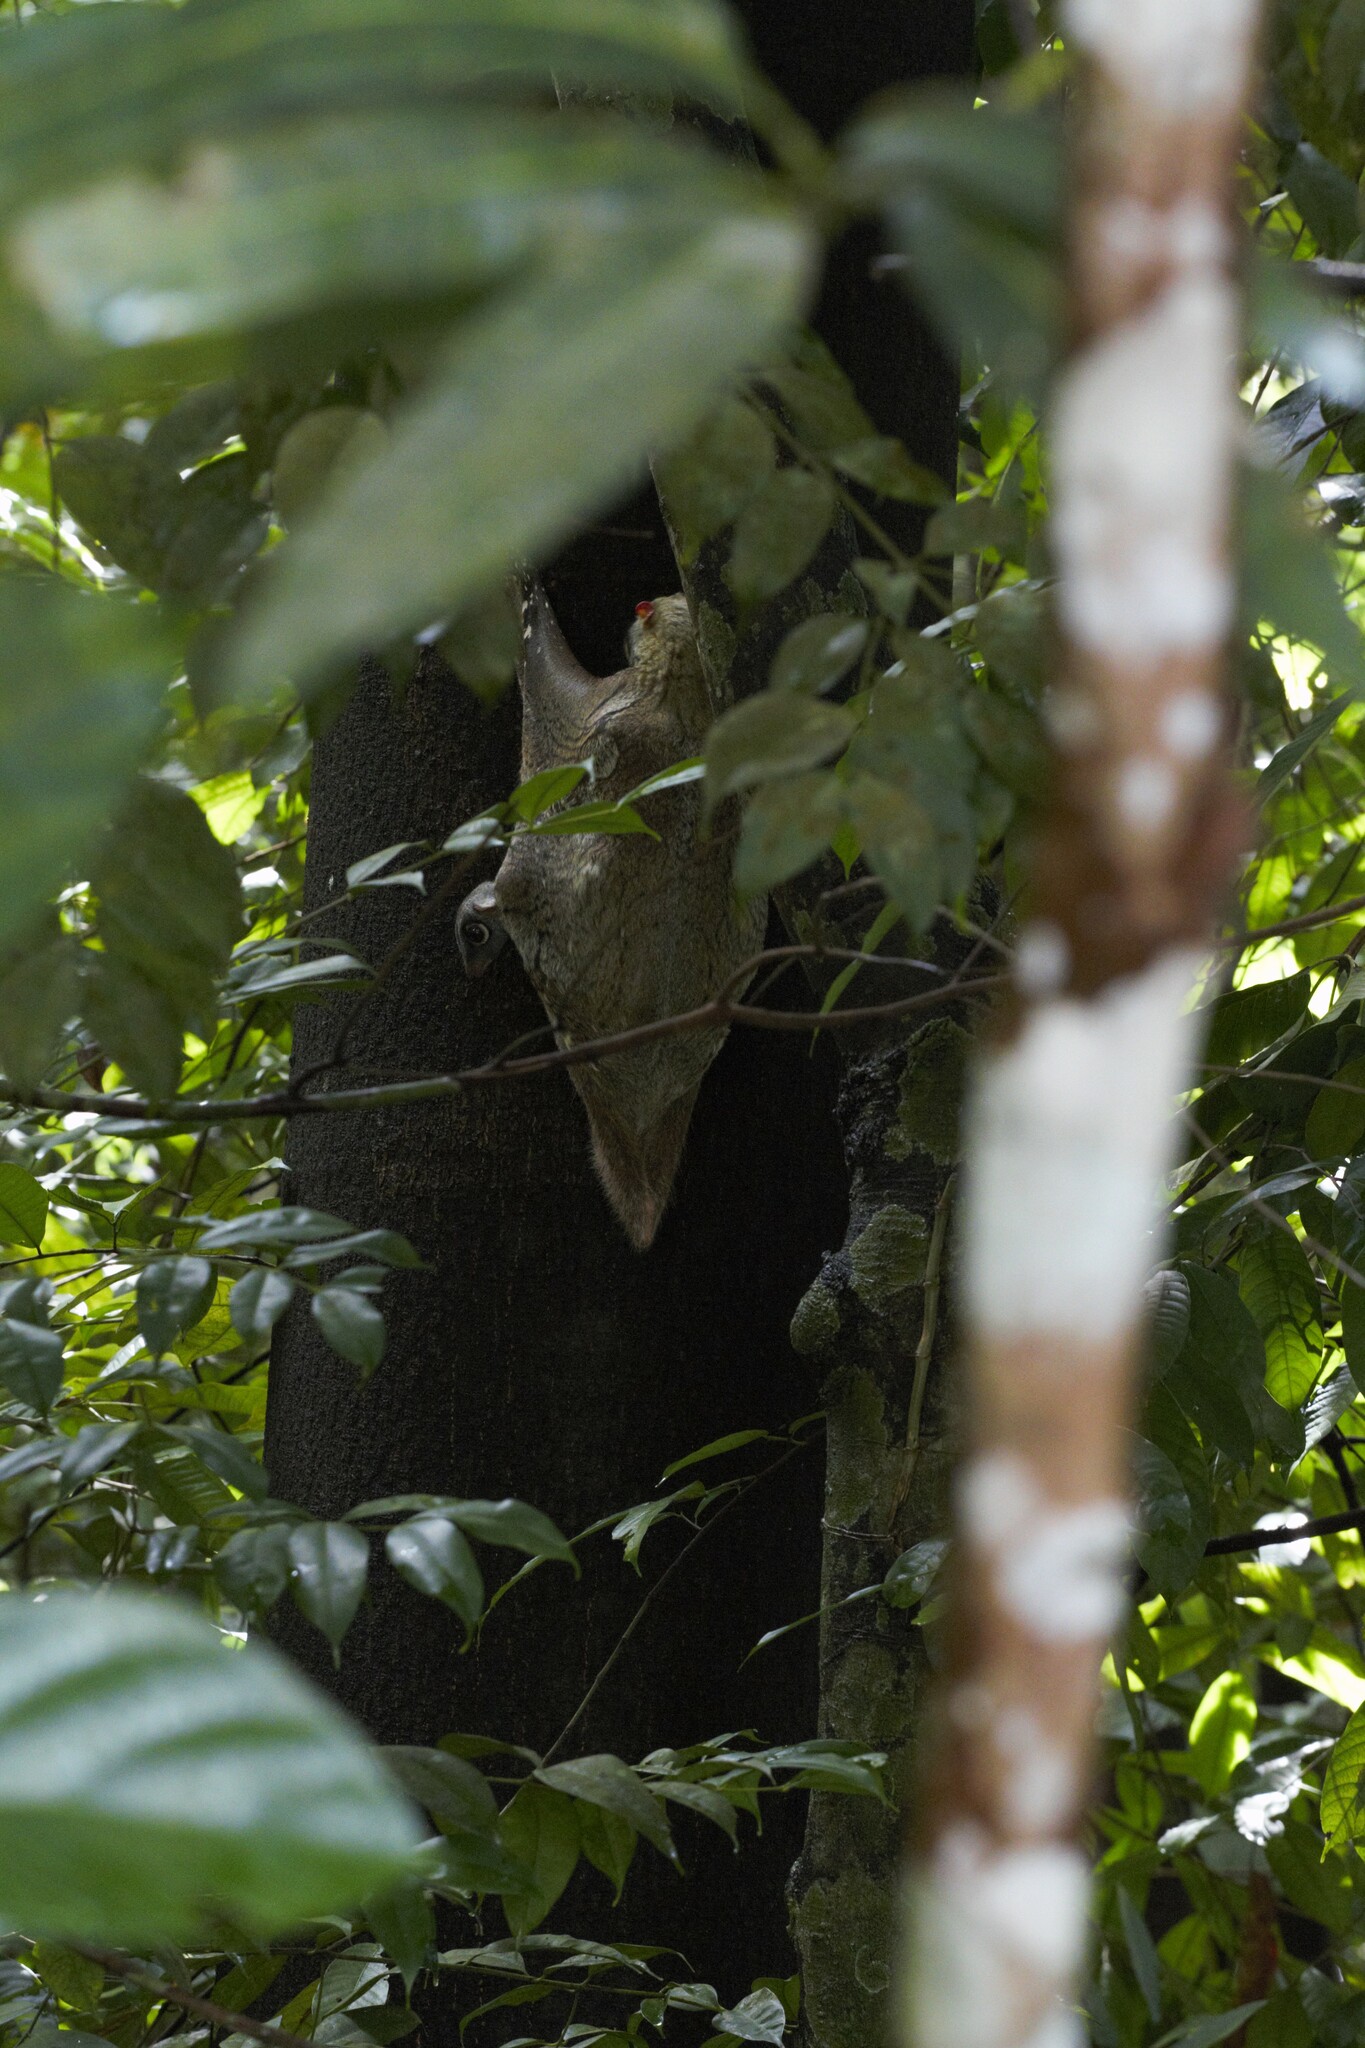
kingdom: Animalia
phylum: Chordata
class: Mammalia
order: Dermoptera
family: Cynocephalidae
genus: Galeopterus
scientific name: Galeopterus variegatus
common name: Sunda flying lemur
